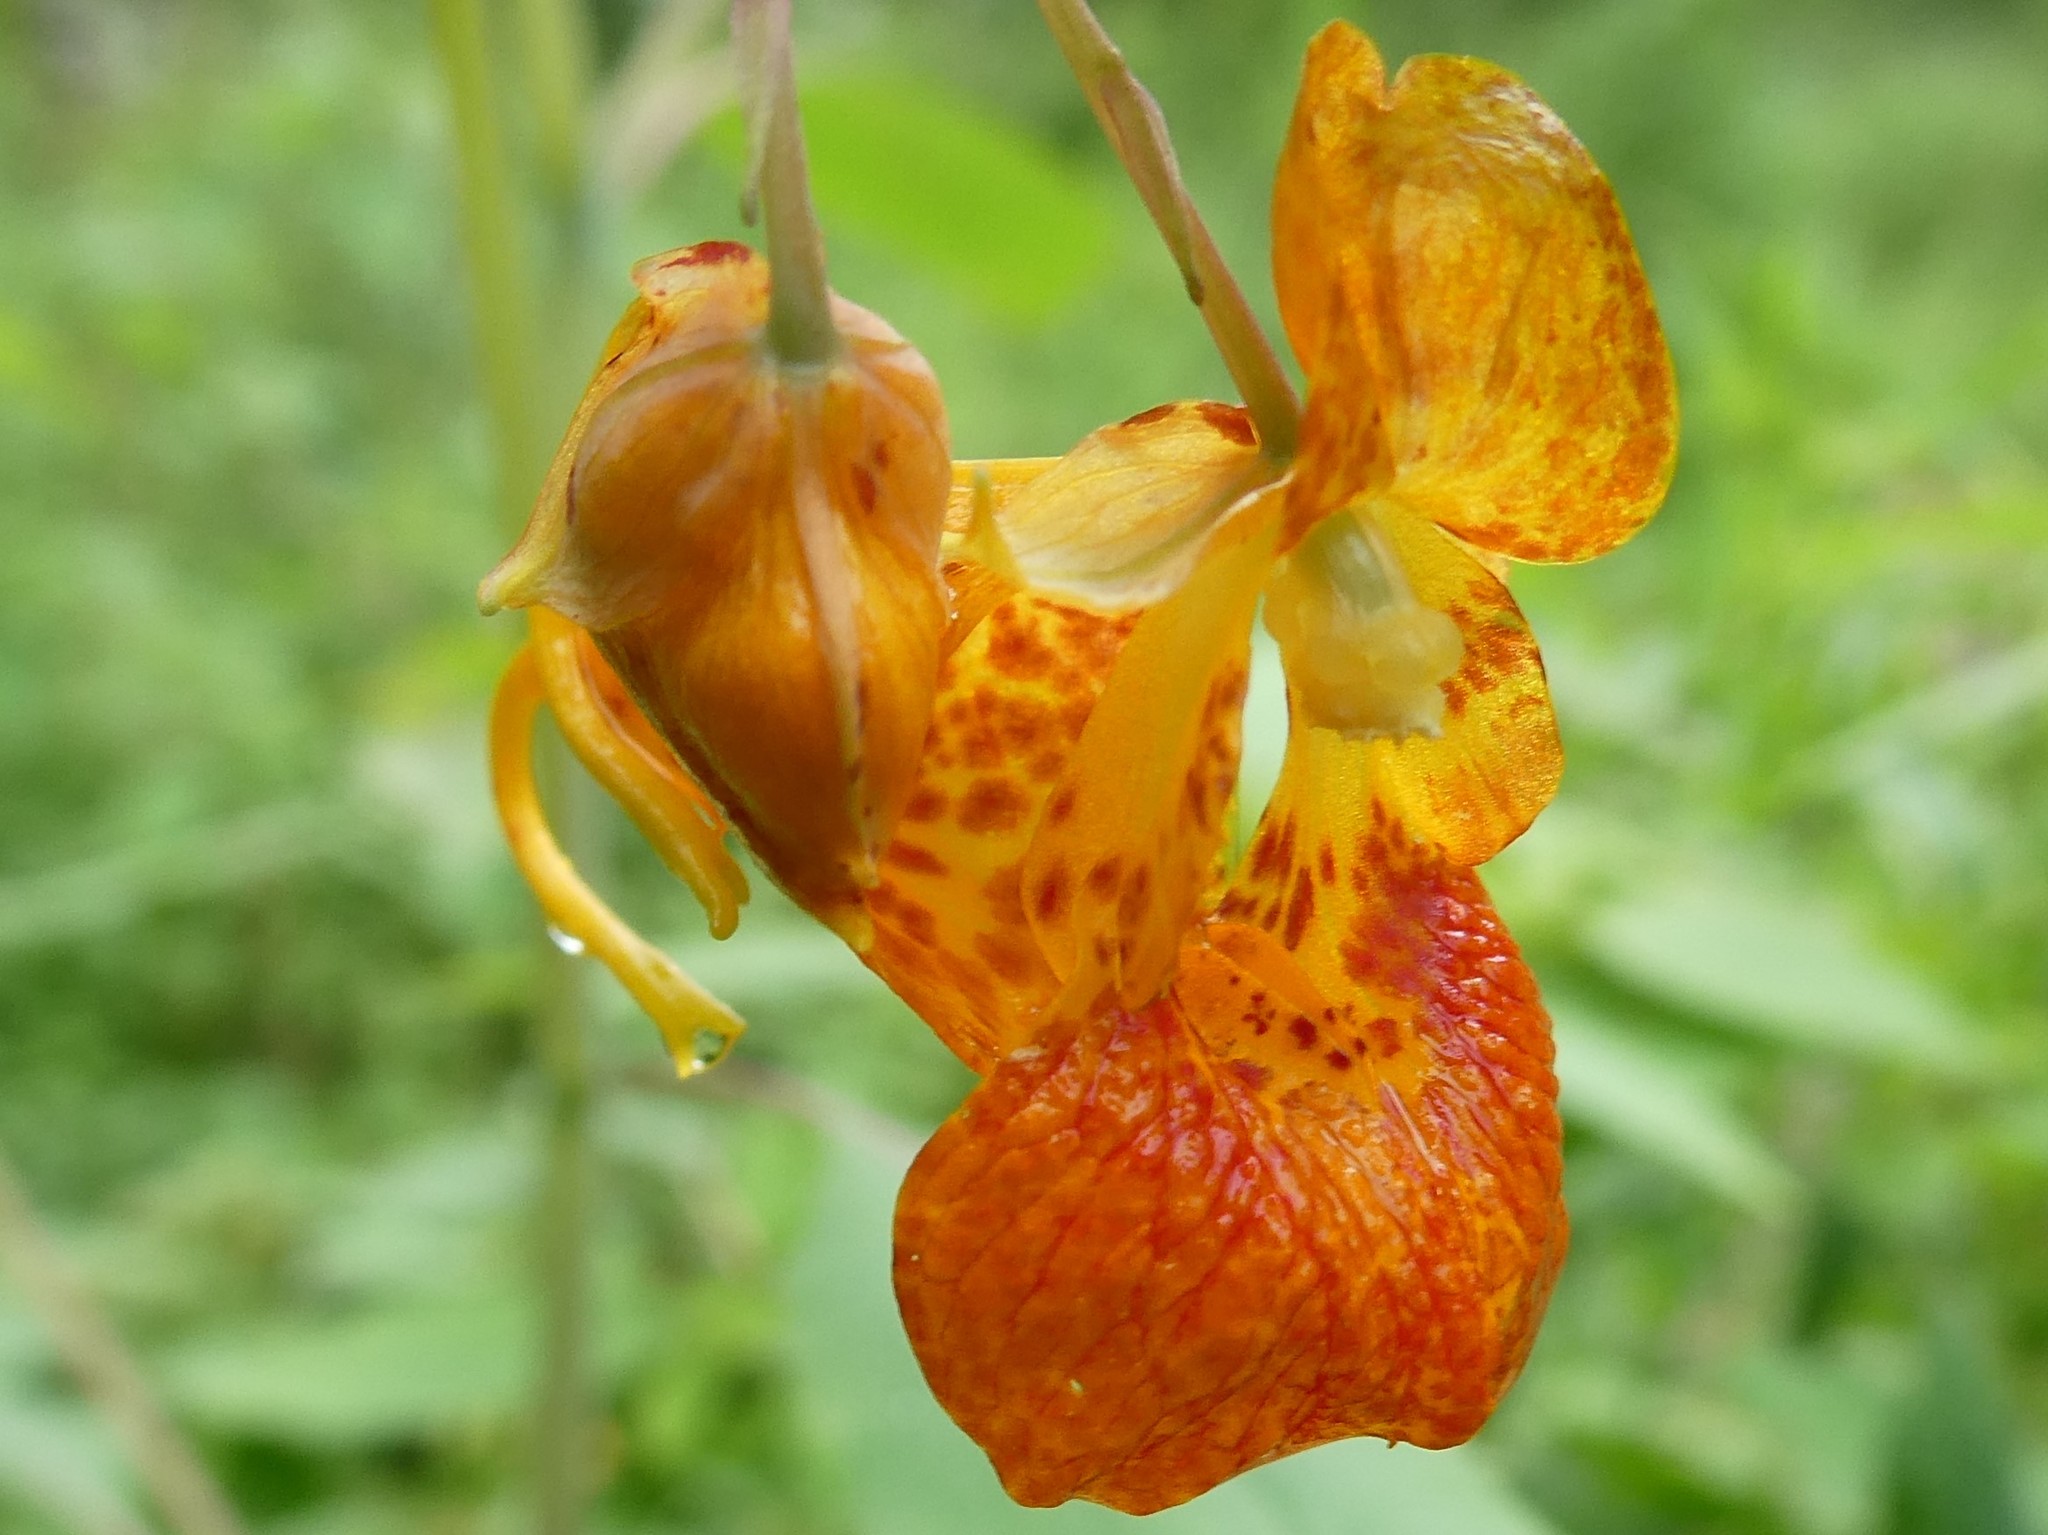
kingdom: Plantae
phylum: Tracheophyta
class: Magnoliopsida
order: Ericales
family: Balsaminaceae
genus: Impatiens
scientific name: Impatiens capensis
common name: Orange balsam
